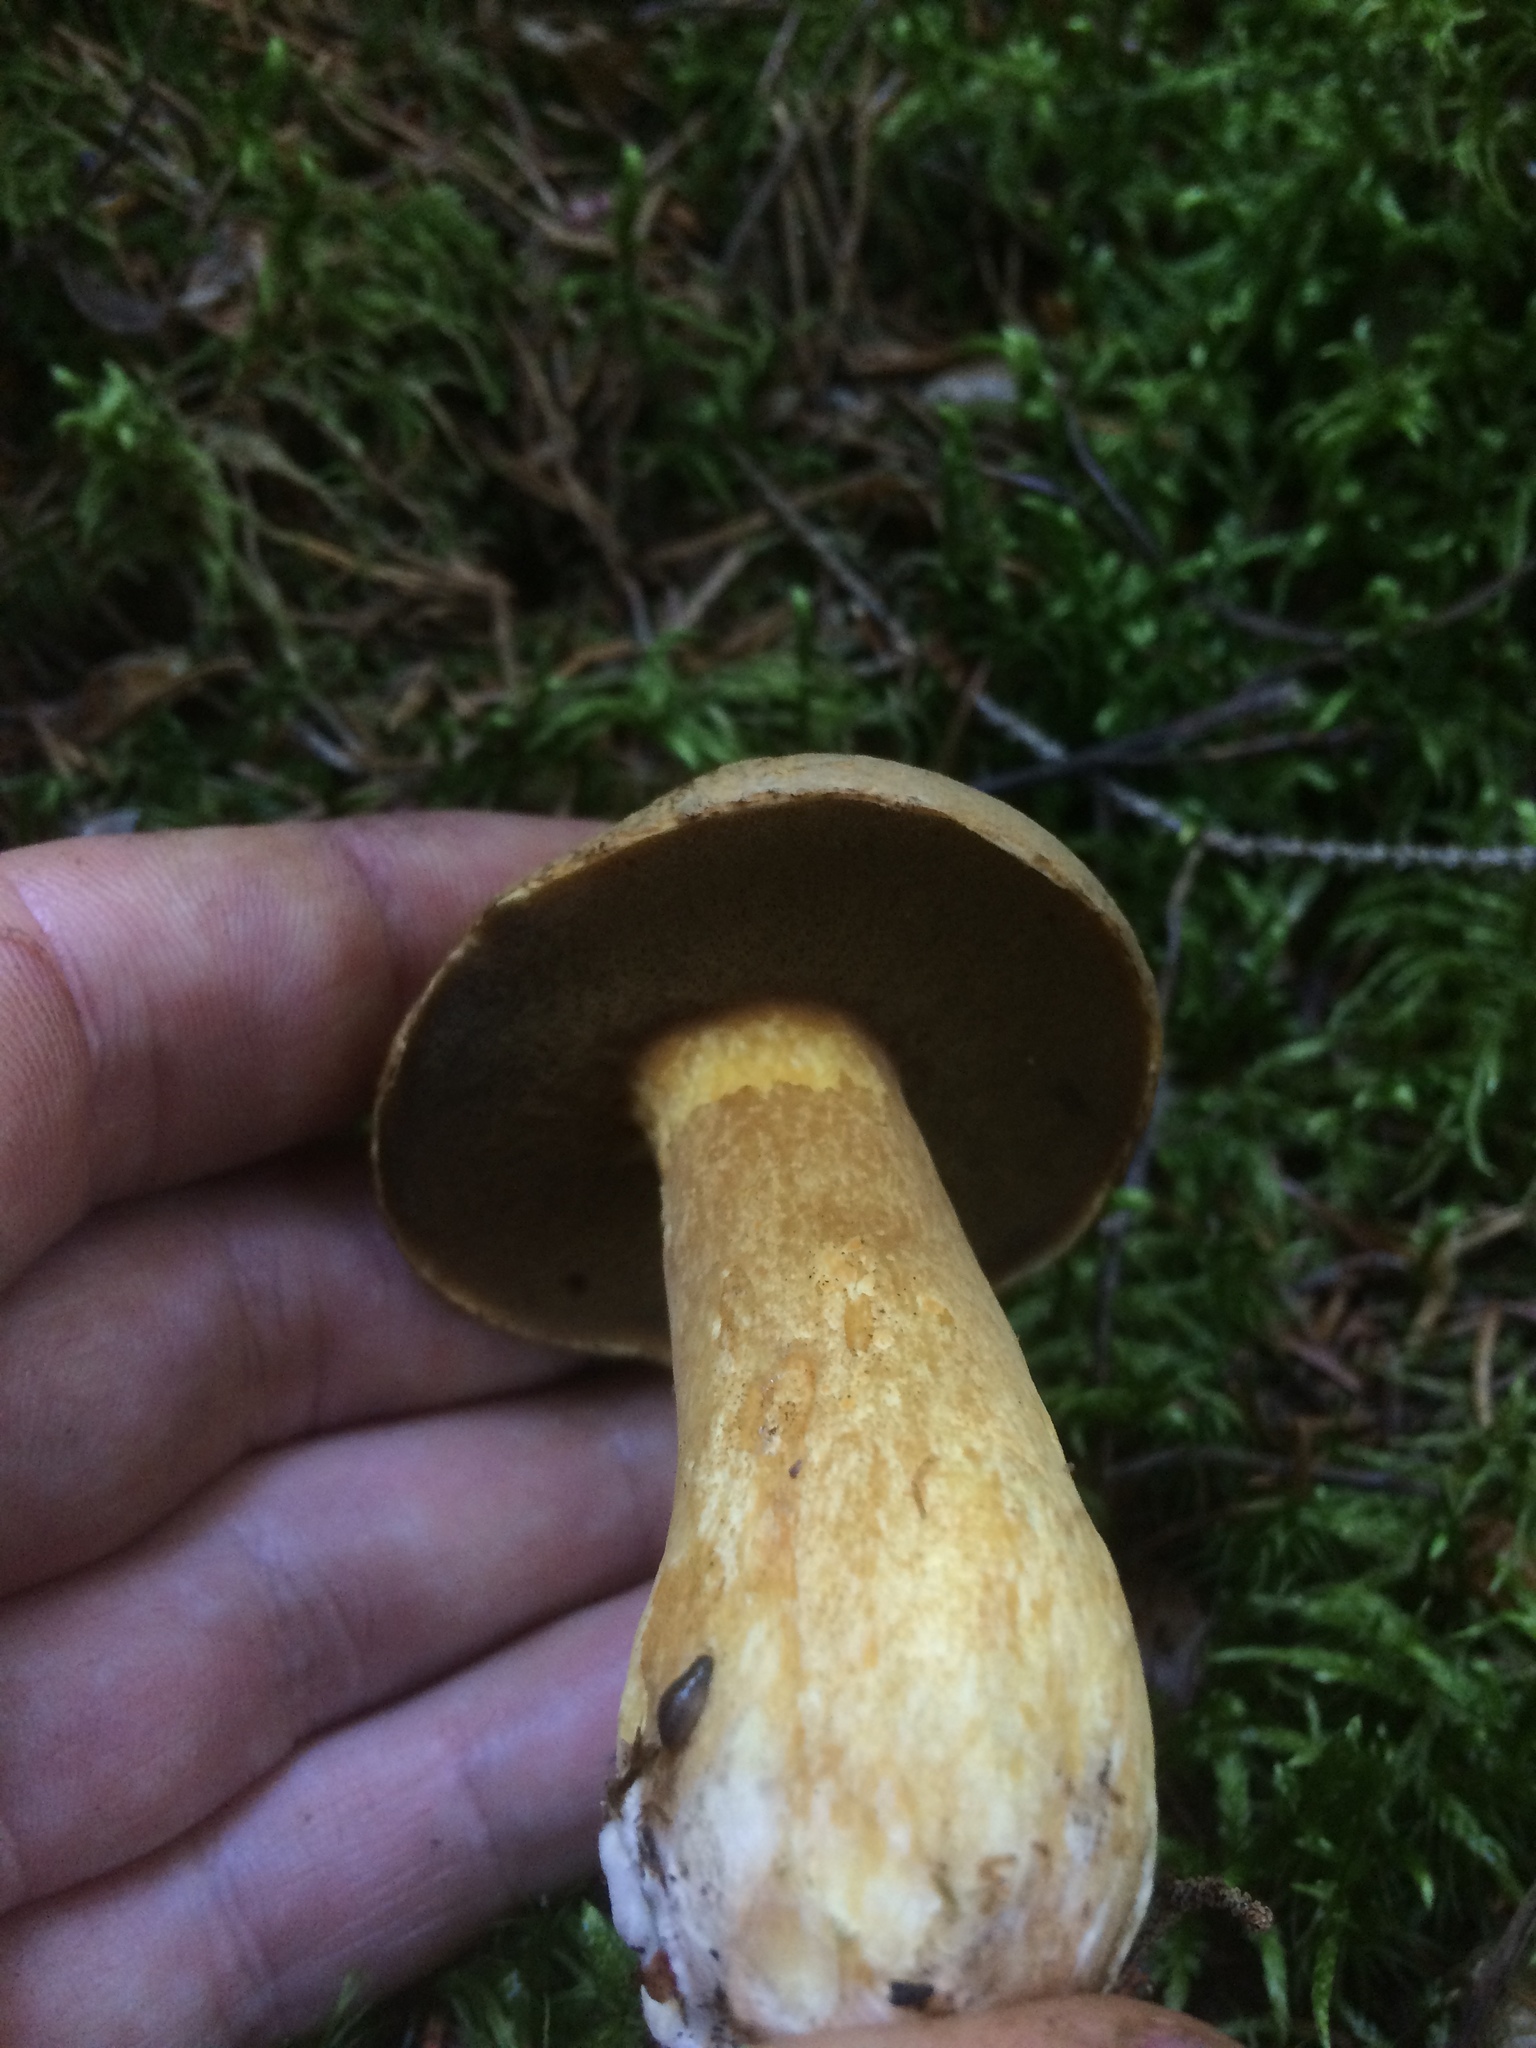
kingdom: Fungi
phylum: Basidiomycota
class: Agaricomycetes
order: Boletales
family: Suillaceae
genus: Suillus
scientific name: Suillus variegatus
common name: Velvet bolete
